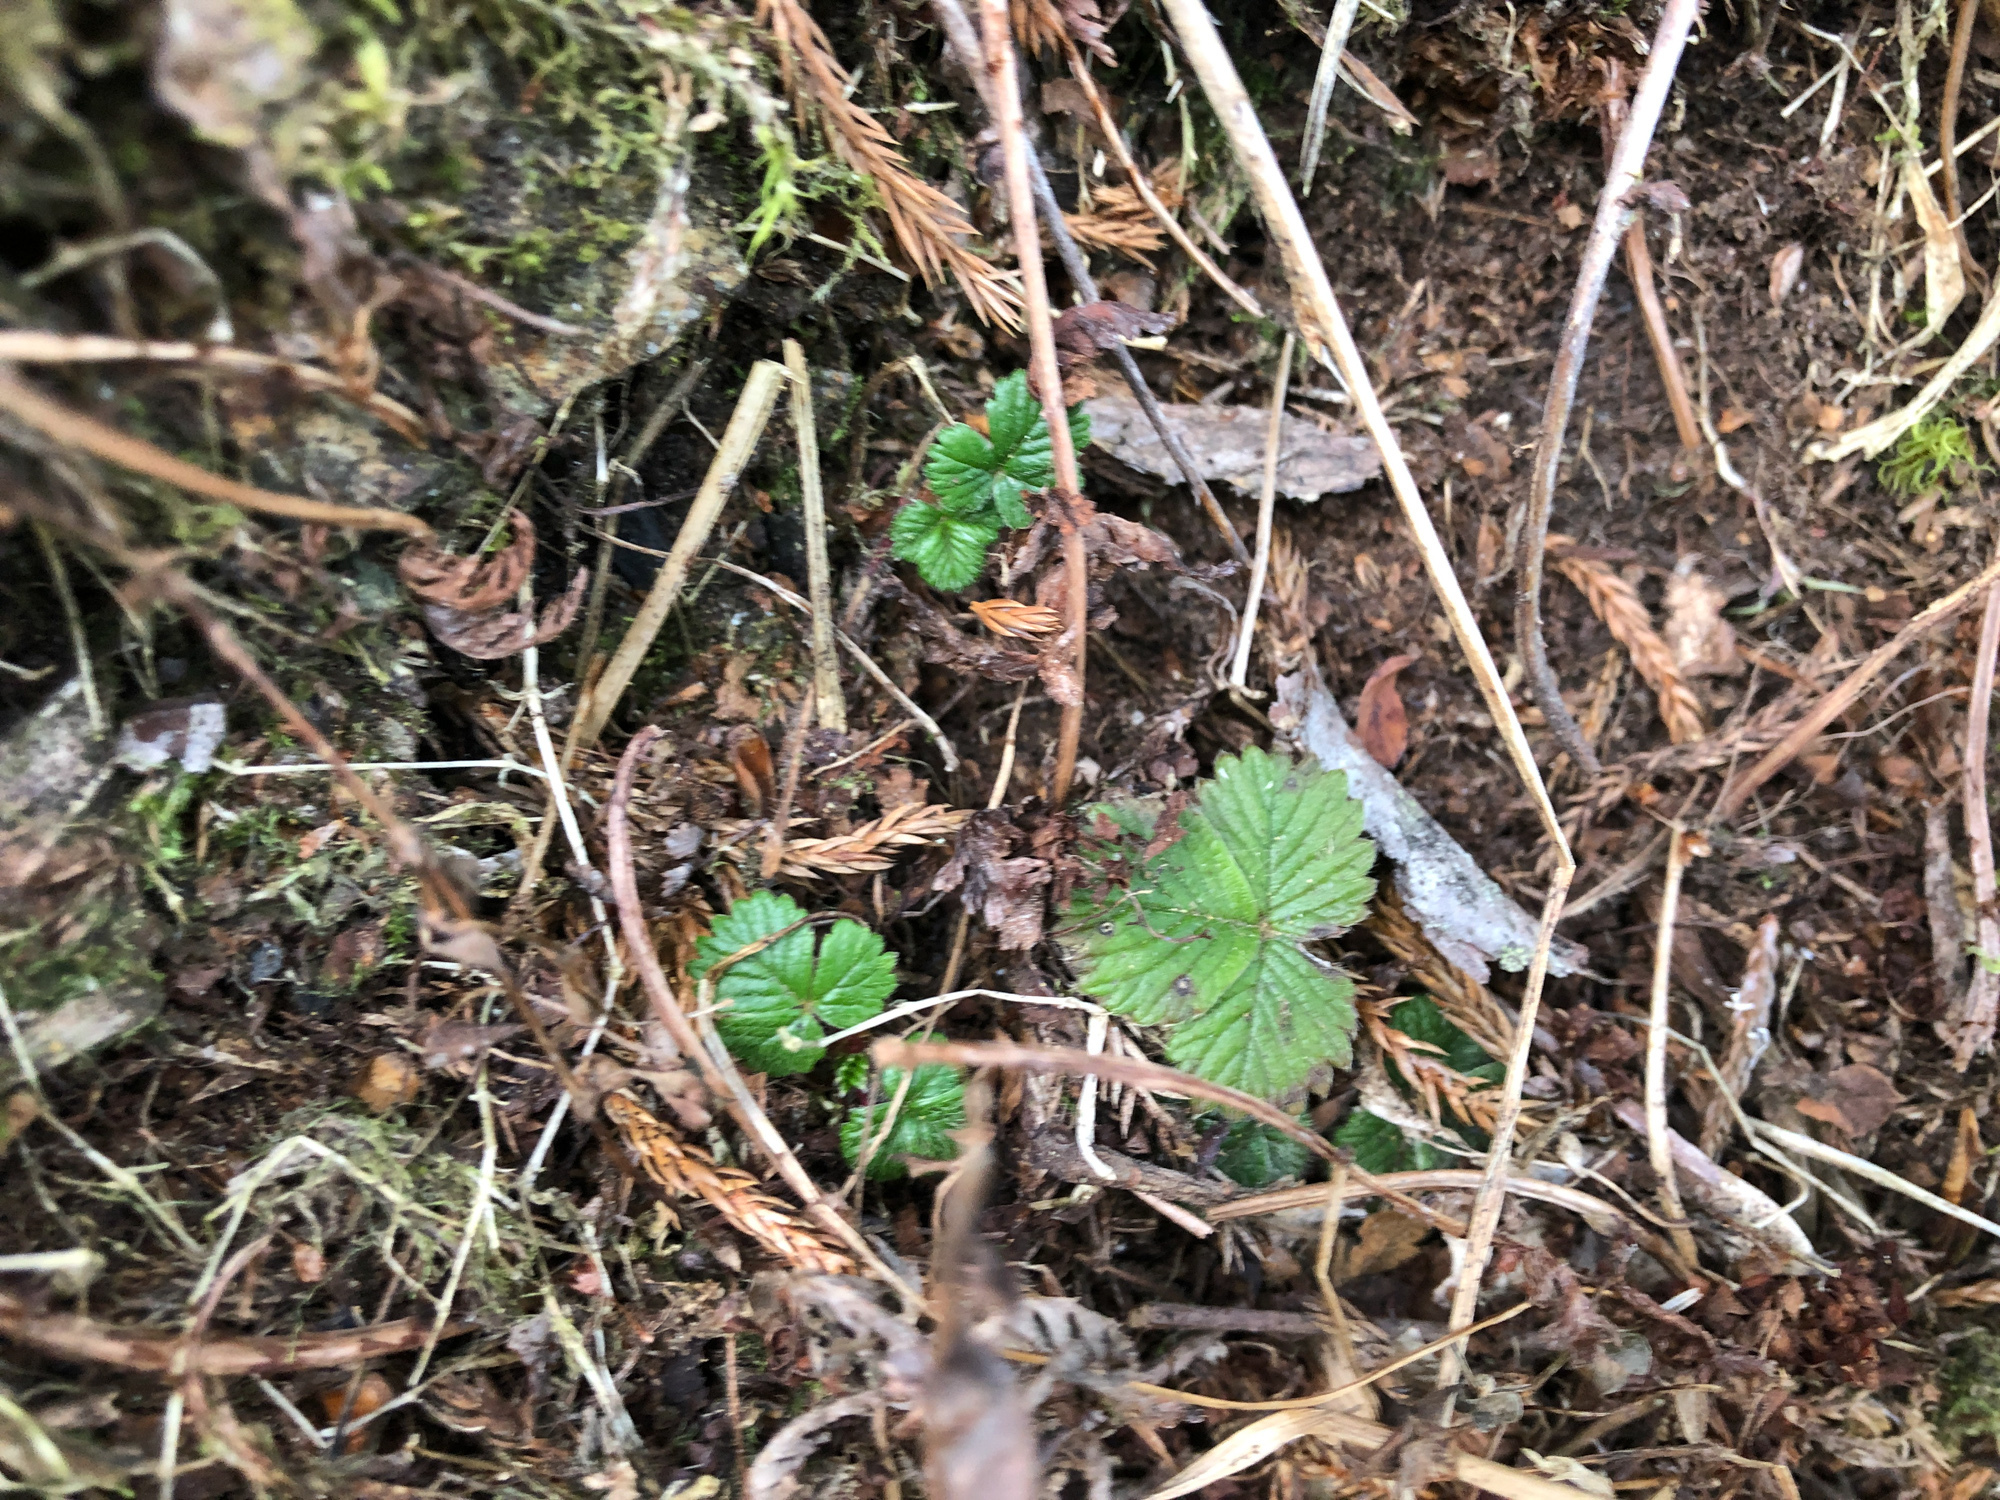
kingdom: Plantae
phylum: Tracheophyta
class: Magnoliopsida
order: Rosales
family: Rosaceae
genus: Fragaria
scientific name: Fragaria nilgerrensis
